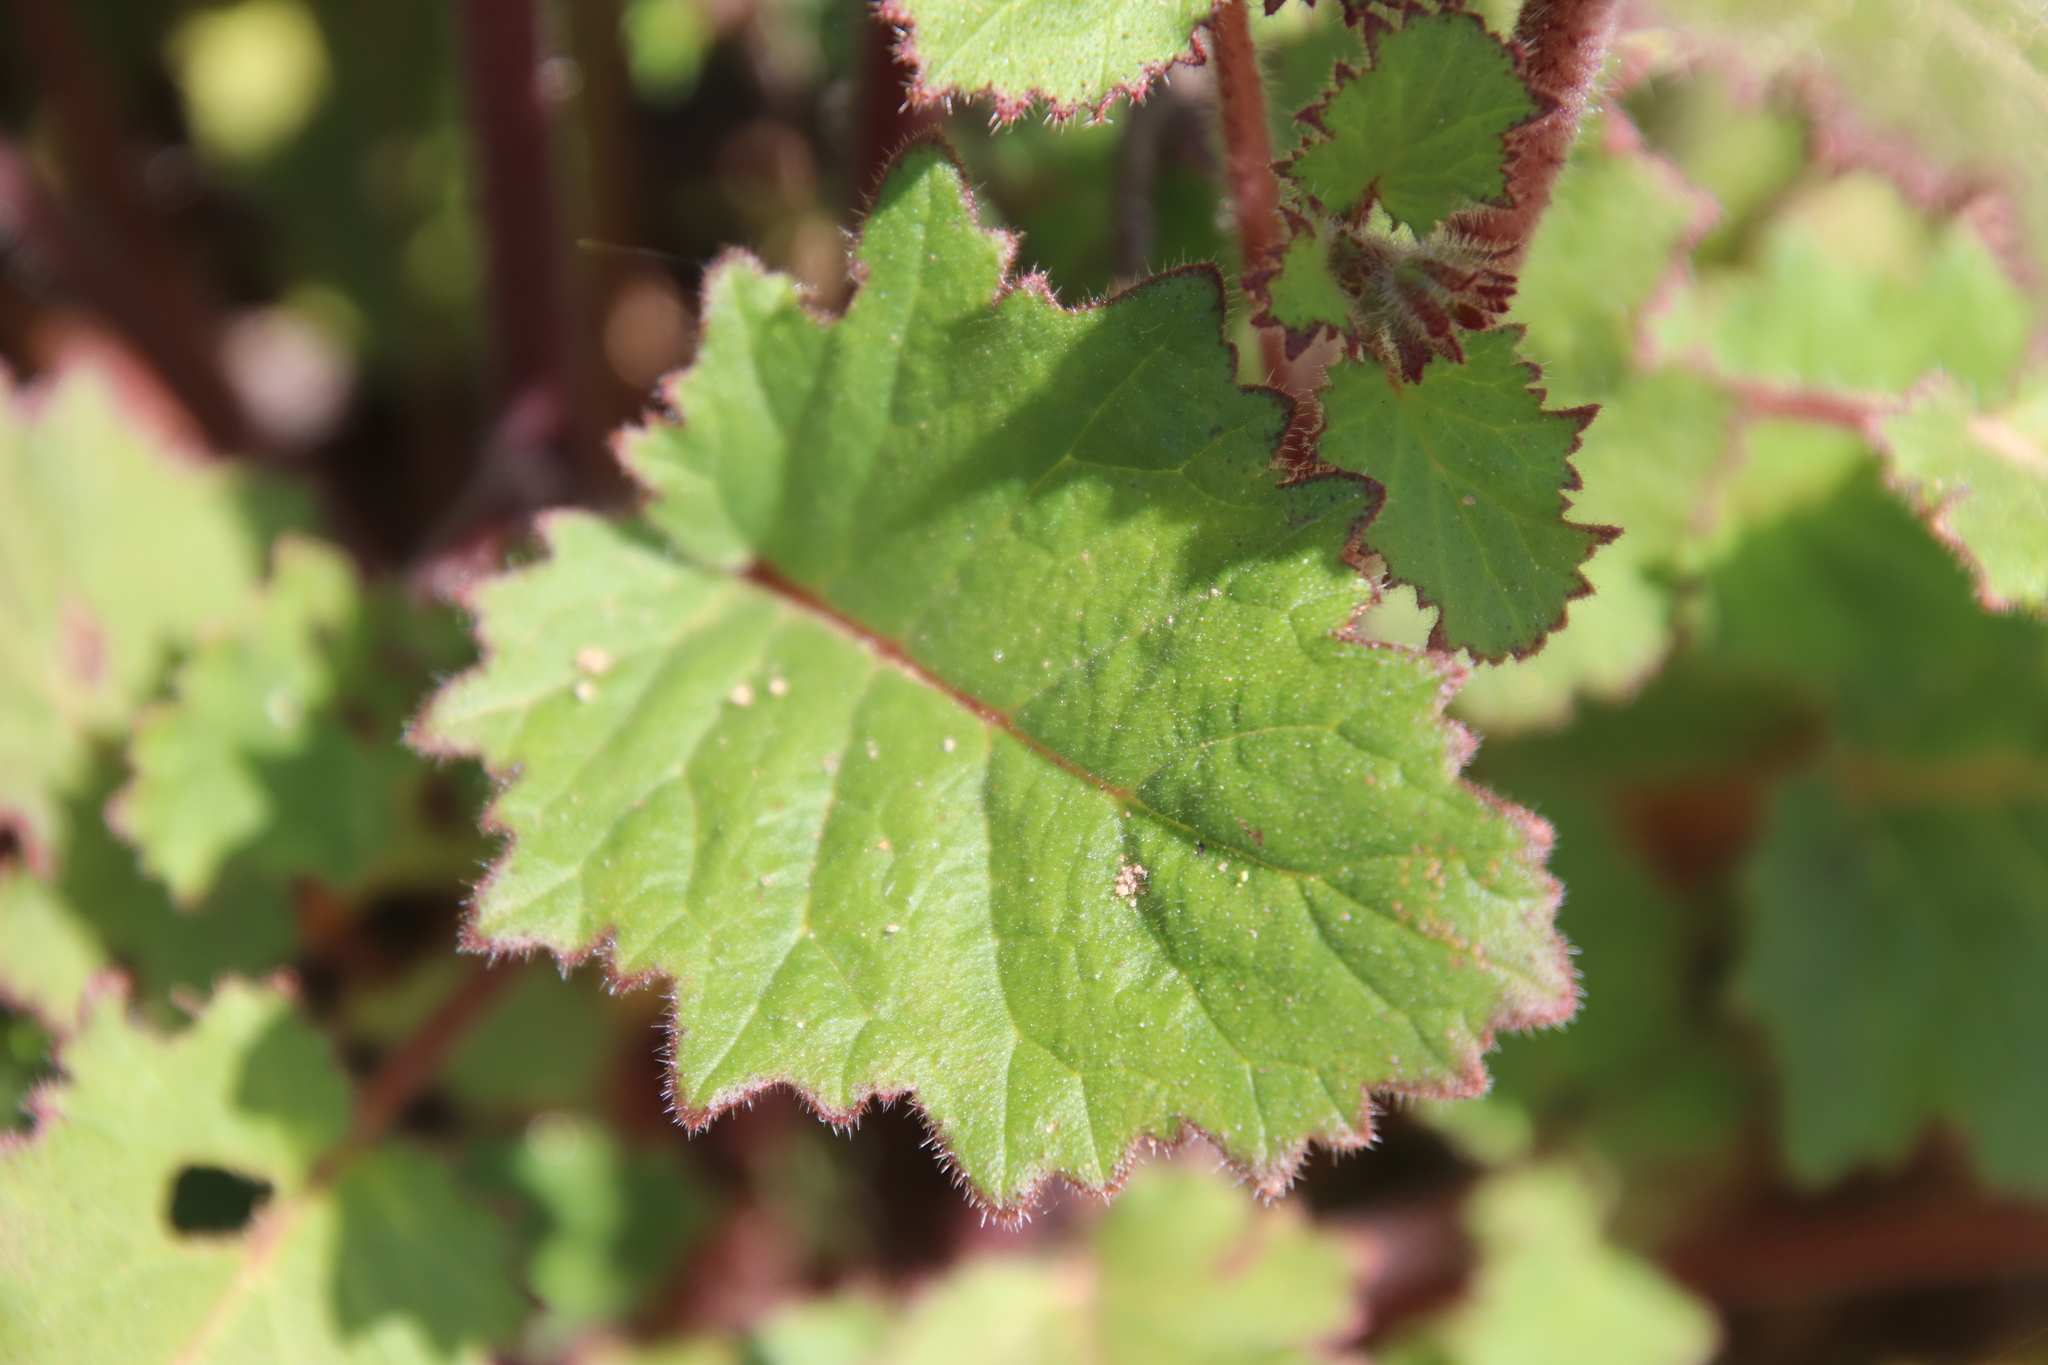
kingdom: Plantae
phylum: Tracheophyta
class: Magnoliopsida
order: Boraginales
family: Hydrophyllaceae
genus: Phacelia
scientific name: Phacelia parryi
